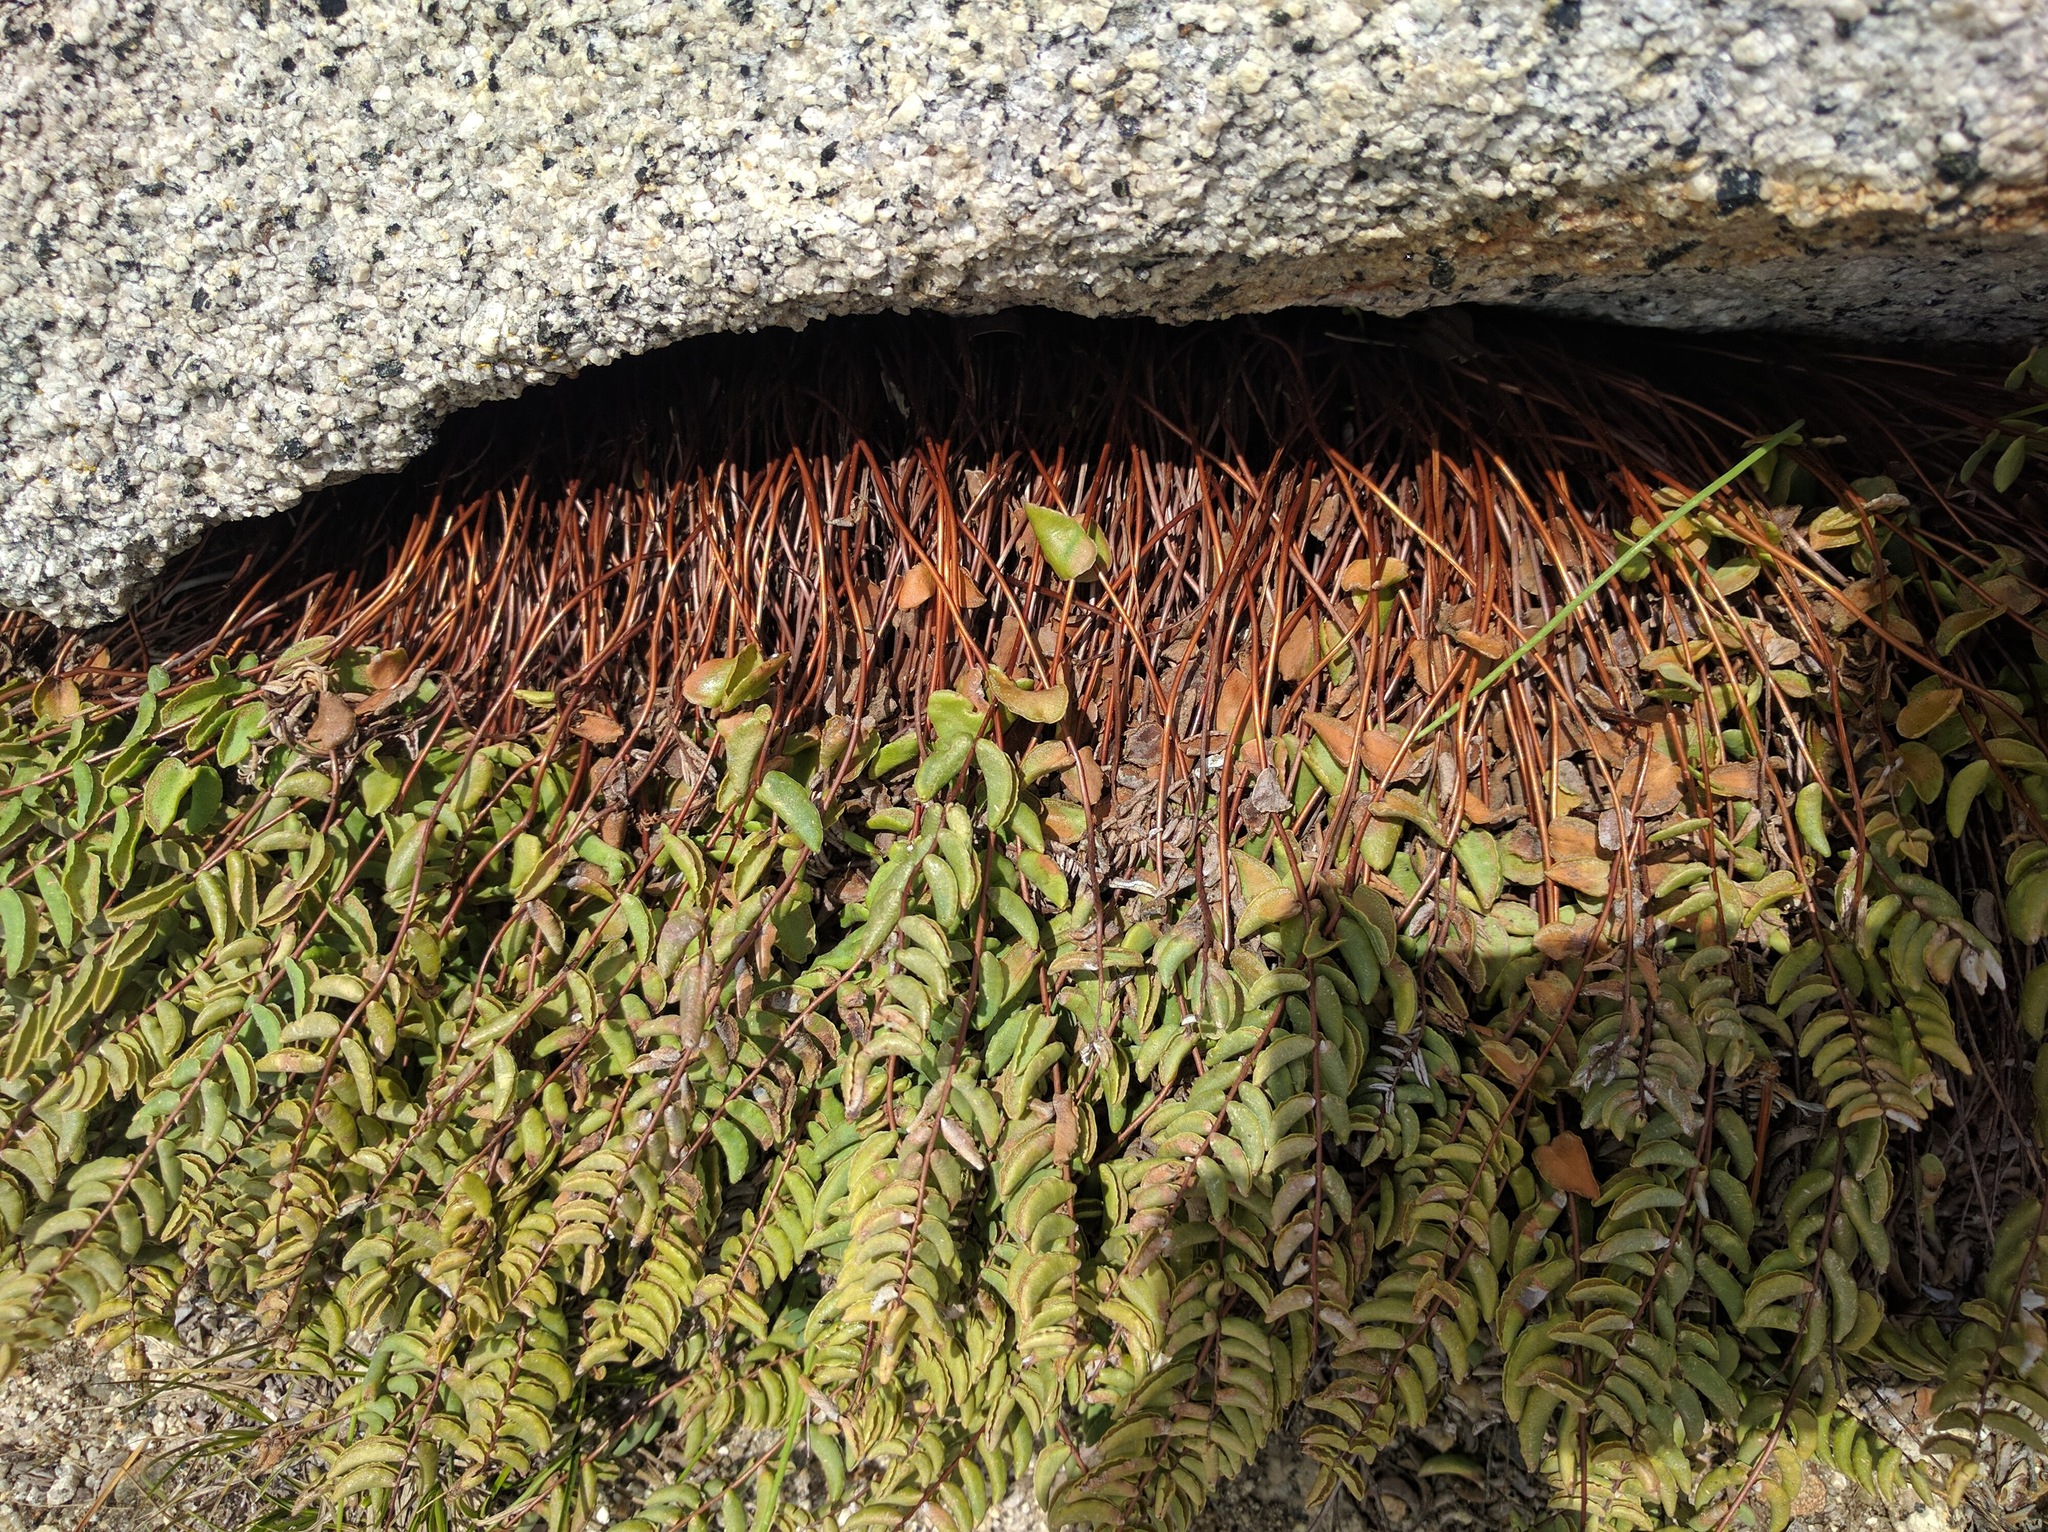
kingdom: Plantae
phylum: Tracheophyta
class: Polypodiopsida
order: Polypodiales
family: Pteridaceae
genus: Pellaea
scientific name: Pellaea bridgesii
